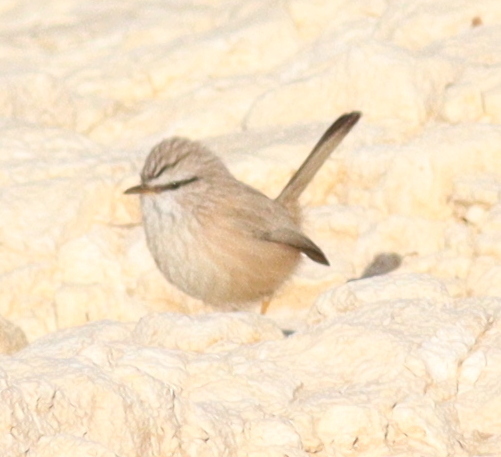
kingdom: Animalia
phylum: Chordata
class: Aves
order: Passeriformes
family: Scotocercidae
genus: Scotocerca
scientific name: Scotocerca inquieta
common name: Scrub warbler
